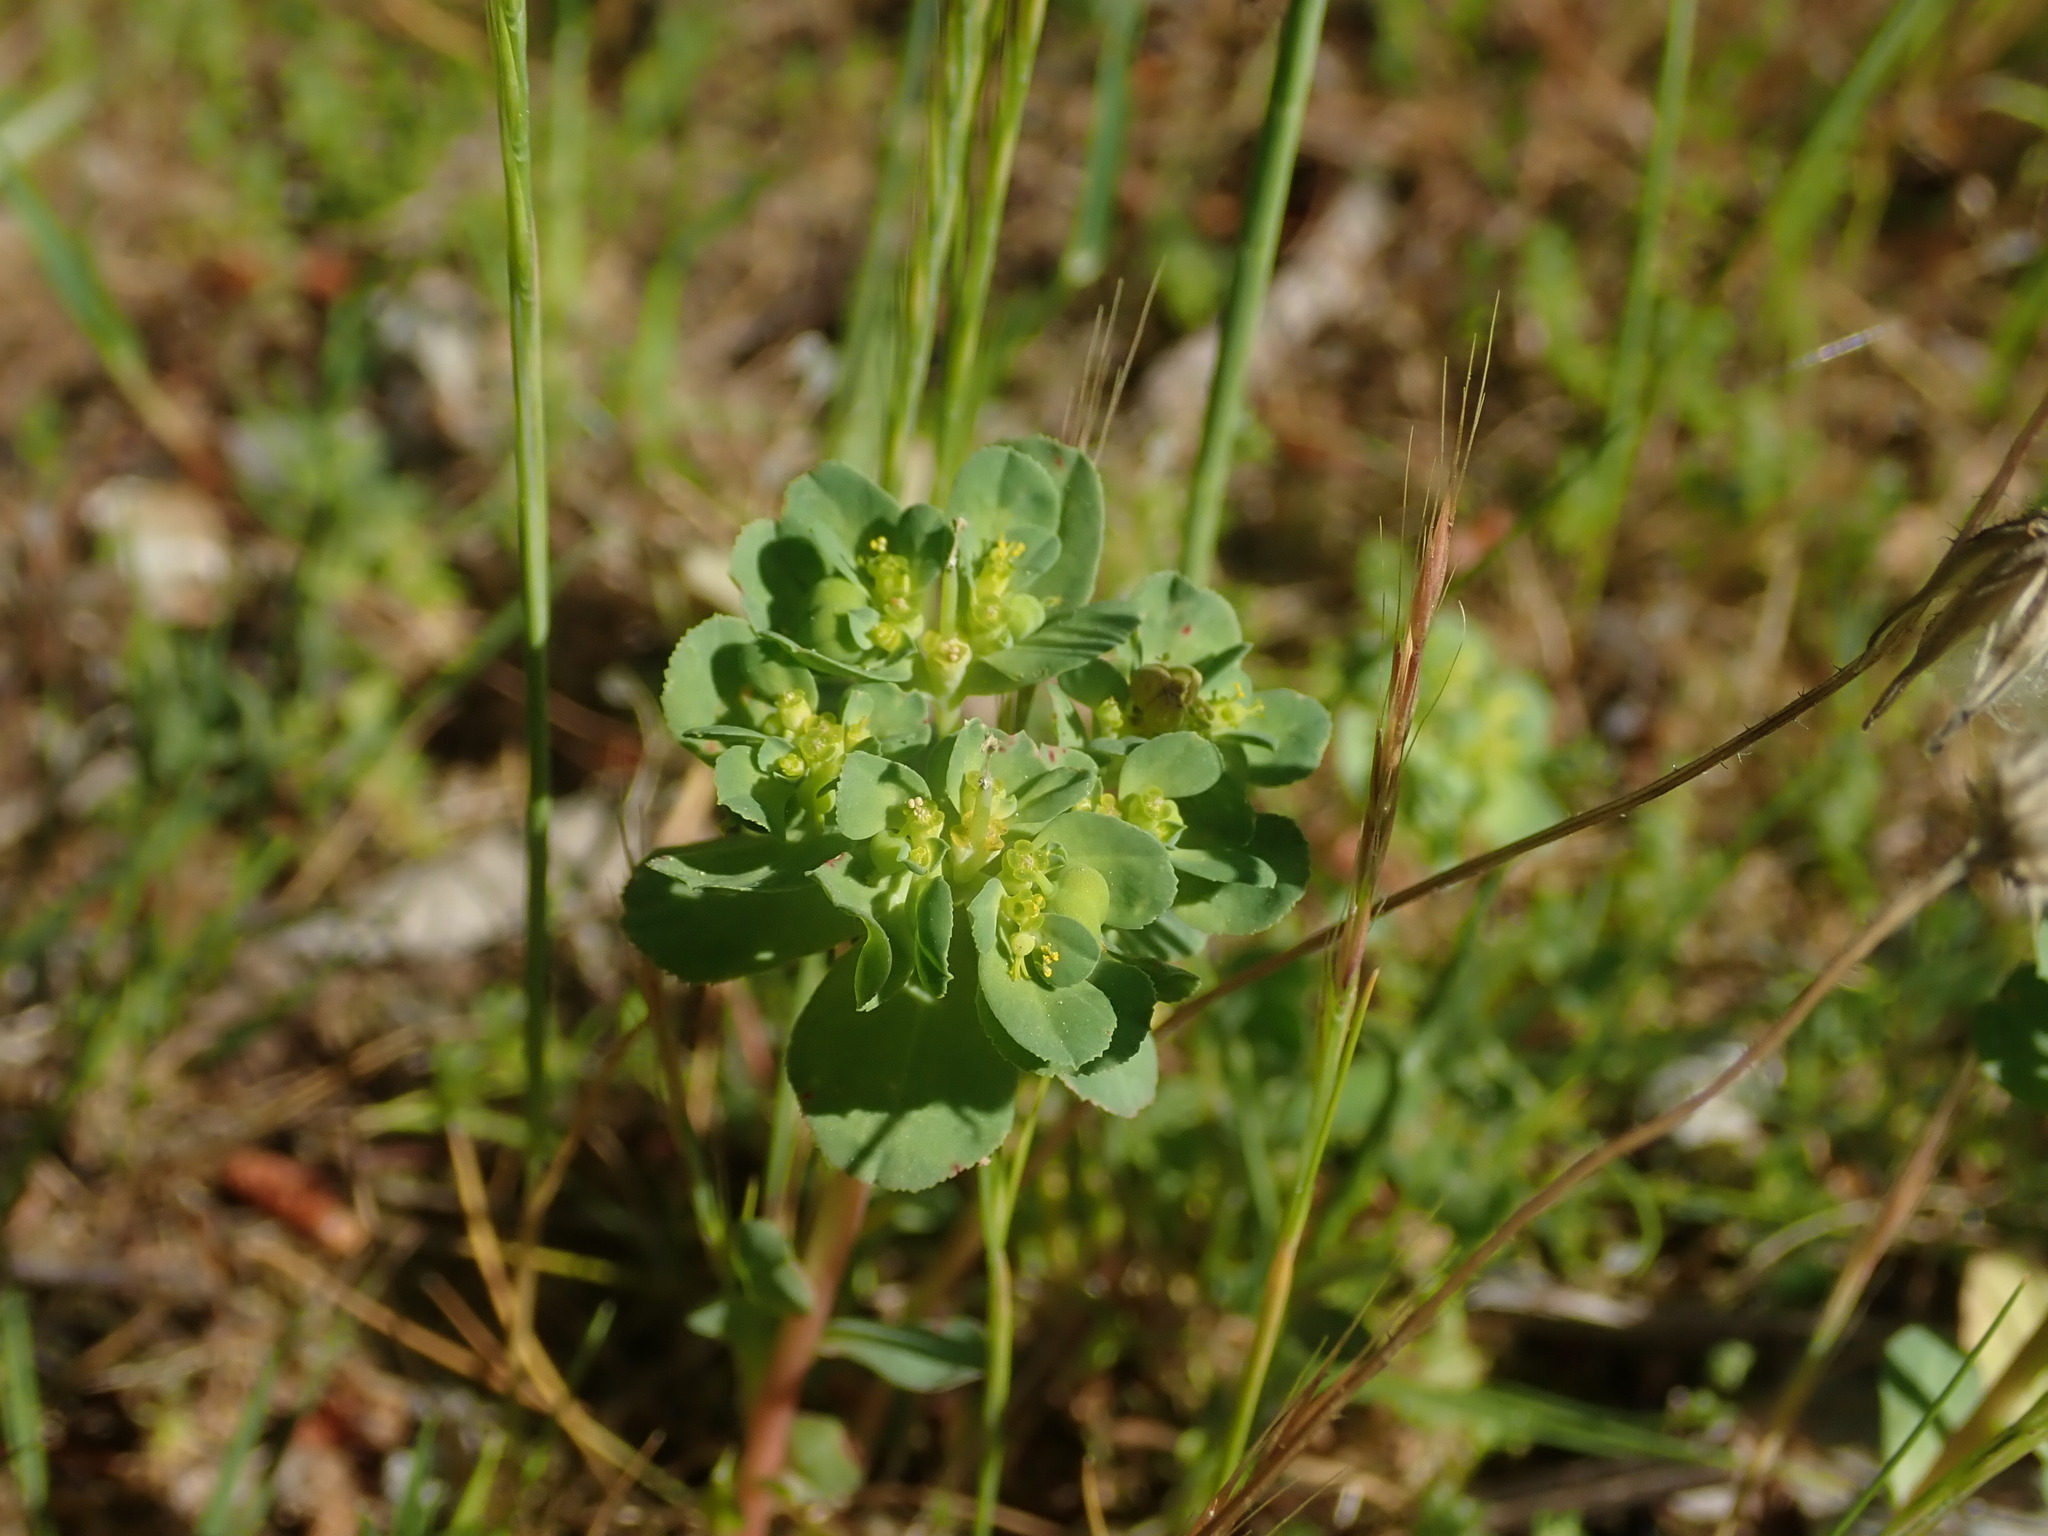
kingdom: Plantae
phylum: Tracheophyta
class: Magnoliopsida
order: Malpighiales
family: Euphorbiaceae
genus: Euphorbia
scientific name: Euphorbia helioscopia
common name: Sun spurge
